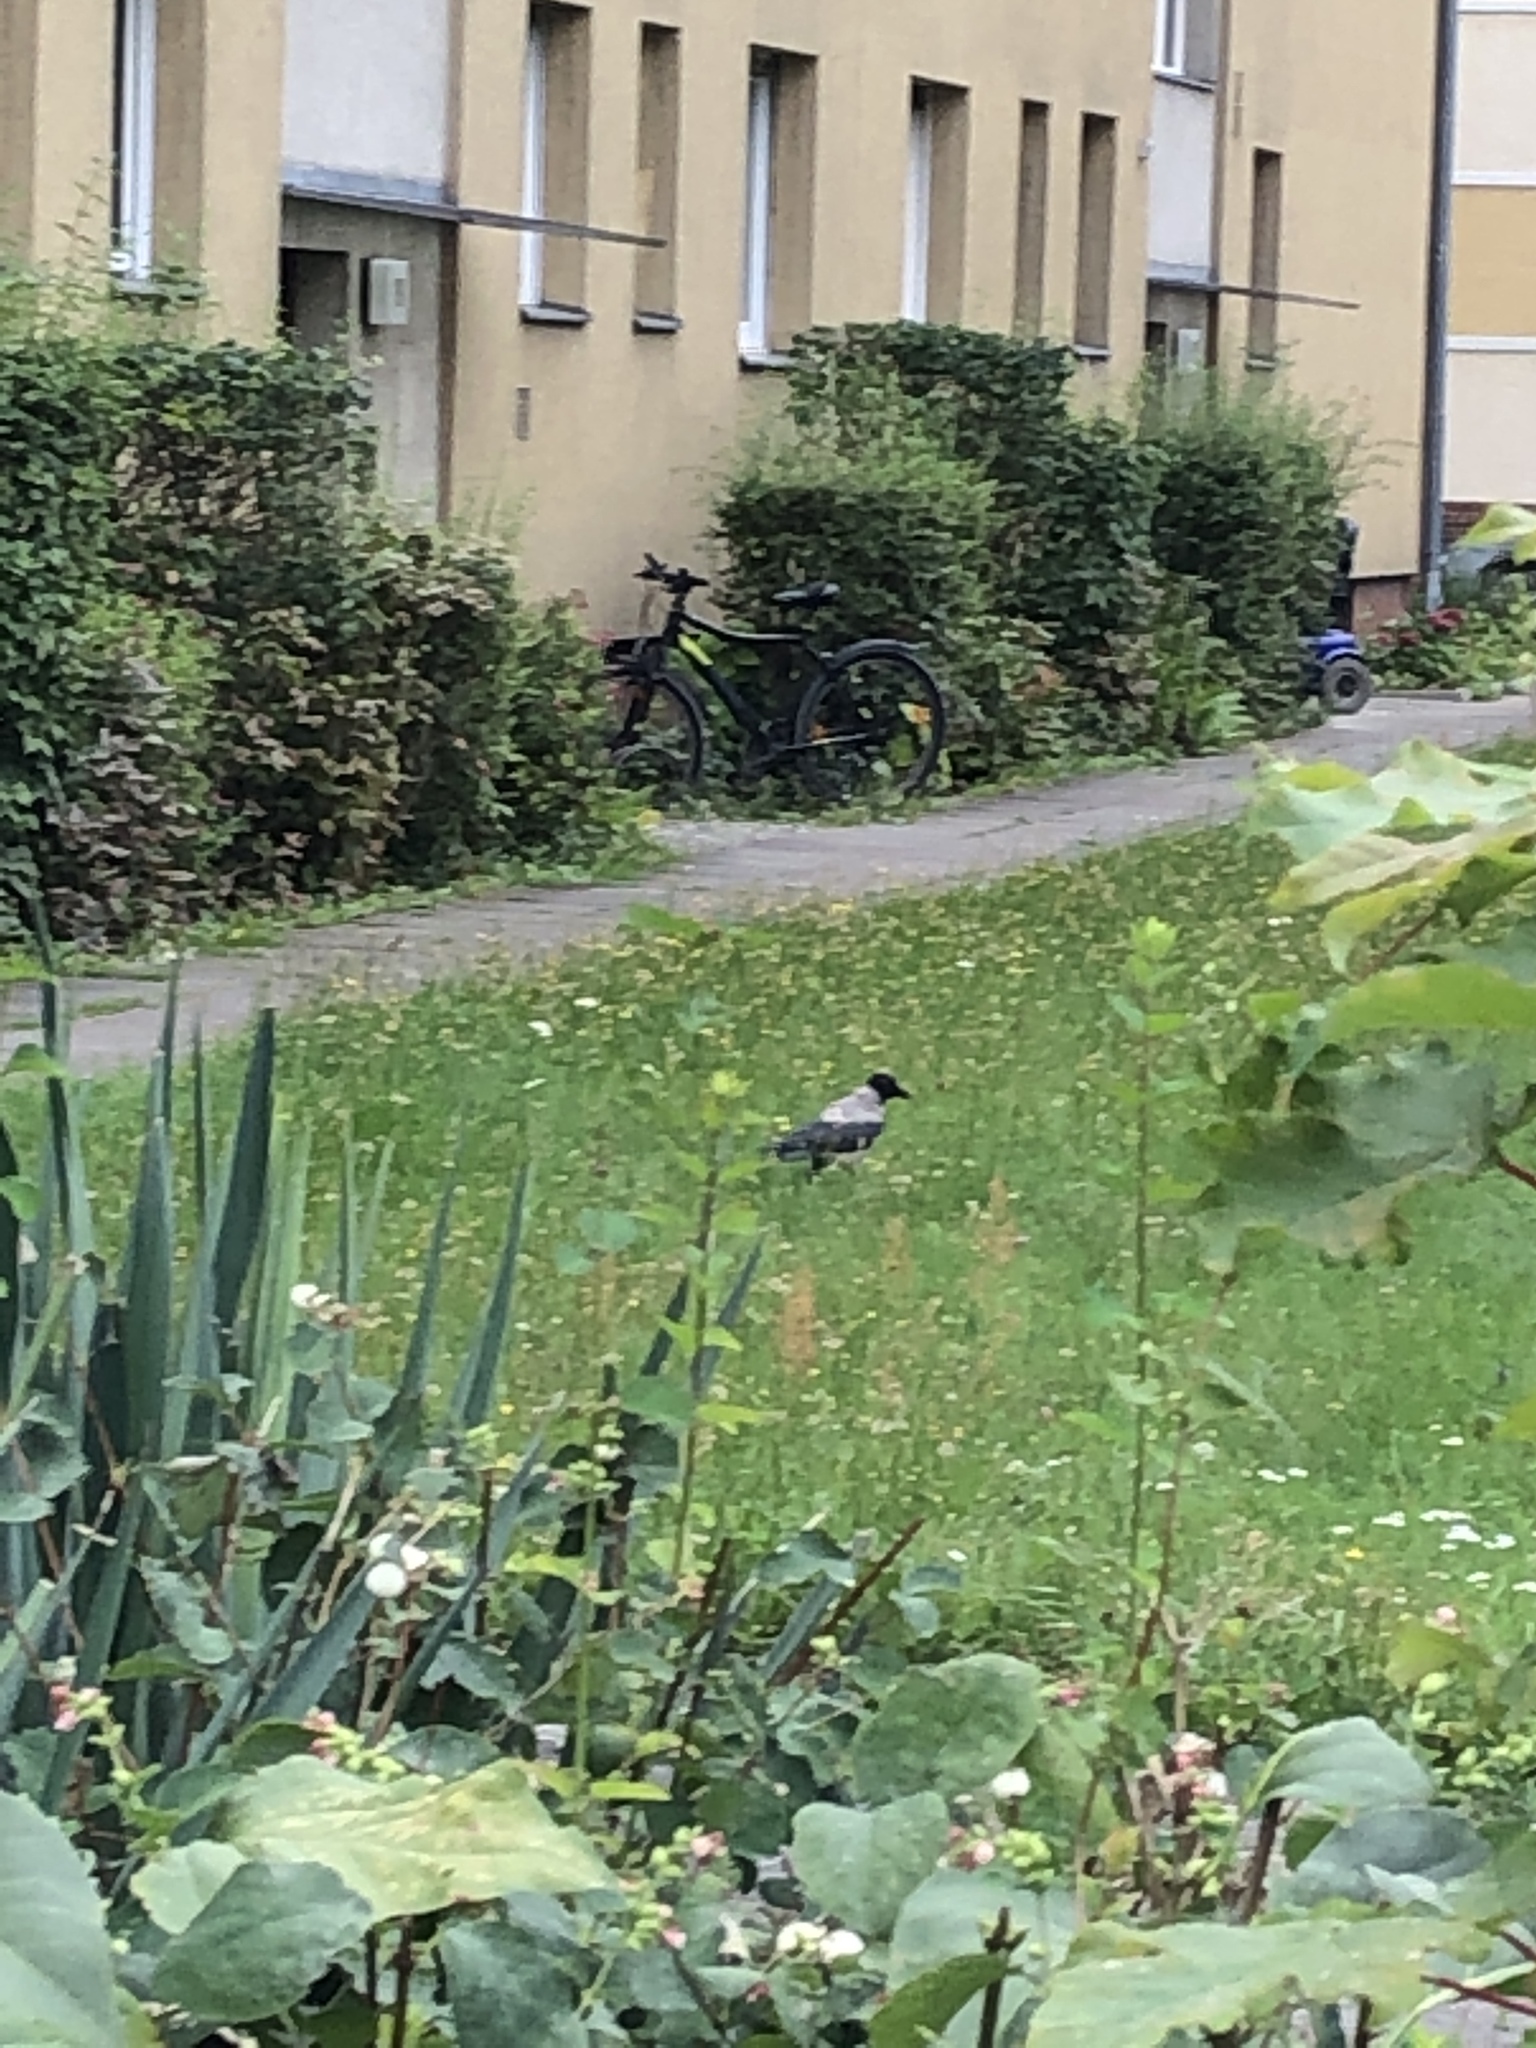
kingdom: Animalia
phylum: Chordata
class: Aves
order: Passeriformes
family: Corvidae
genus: Corvus
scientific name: Corvus cornix
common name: Hooded crow
